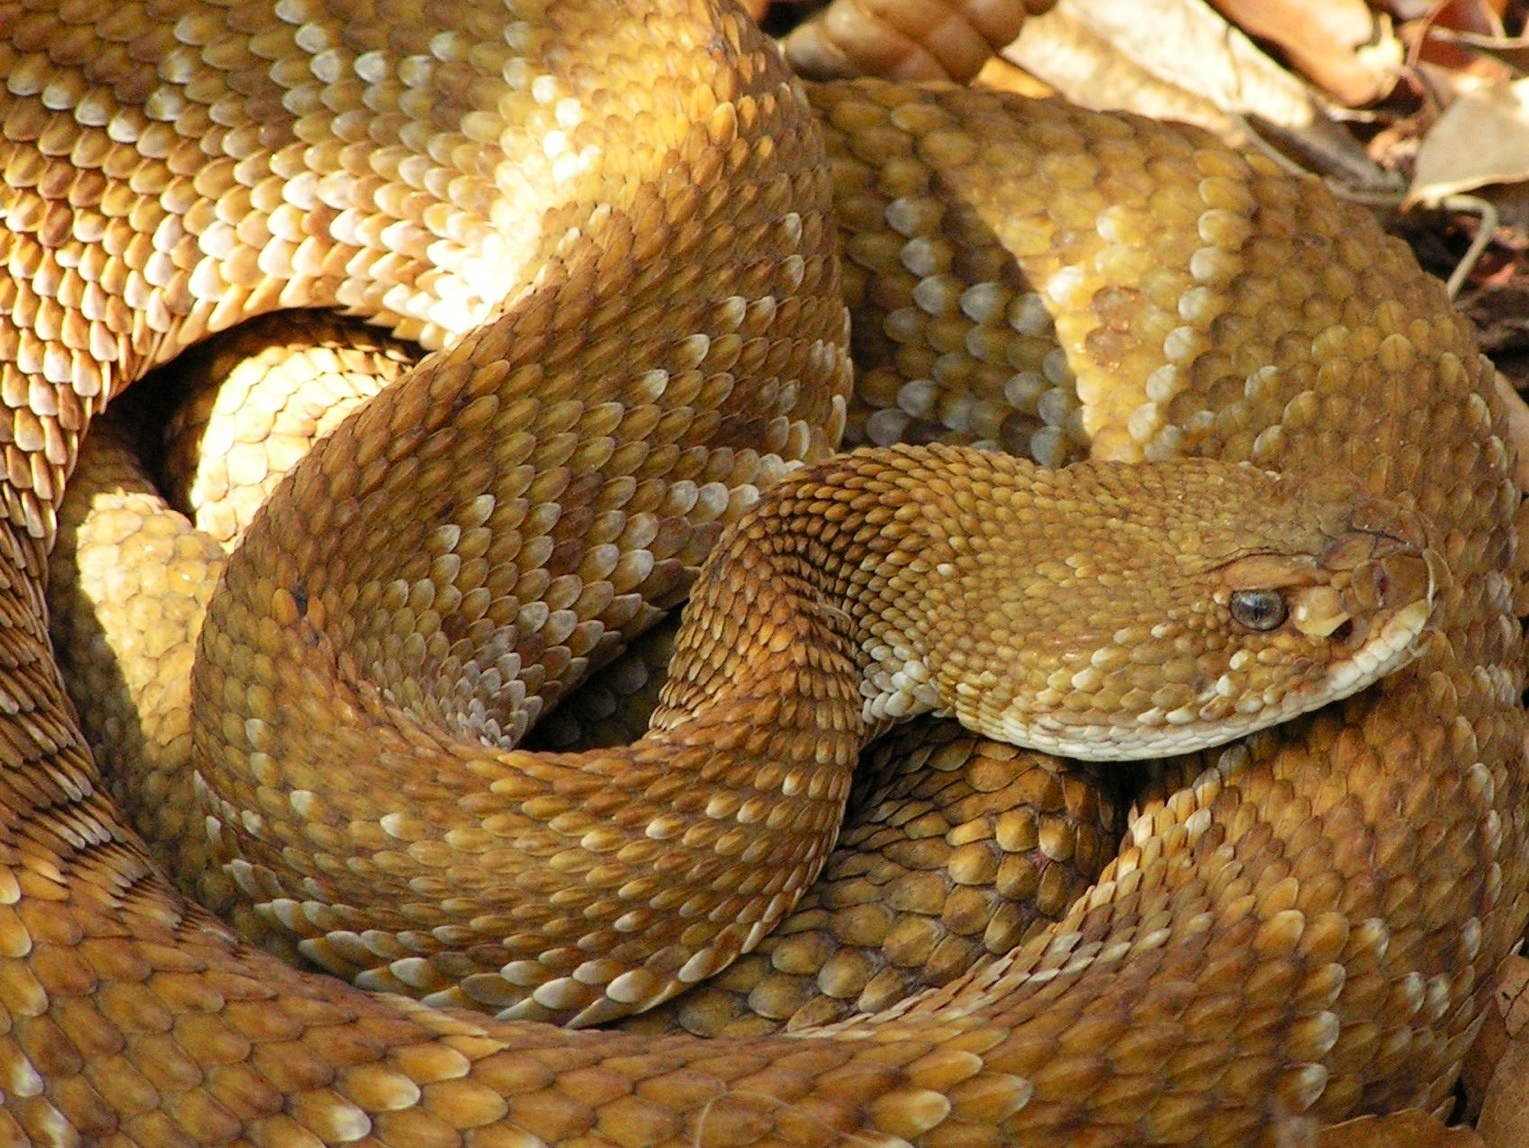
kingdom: Animalia
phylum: Chordata
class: Squamata
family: Viperidae
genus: Crotalus
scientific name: Crotalus basiliscus
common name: Basilisk rattlesnake
